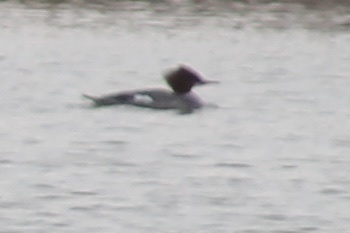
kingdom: Animalia
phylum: Chordata
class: Aves
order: Anseriformes
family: Anatidae
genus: Mergus
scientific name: Mergus merganser
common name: Common merganser
